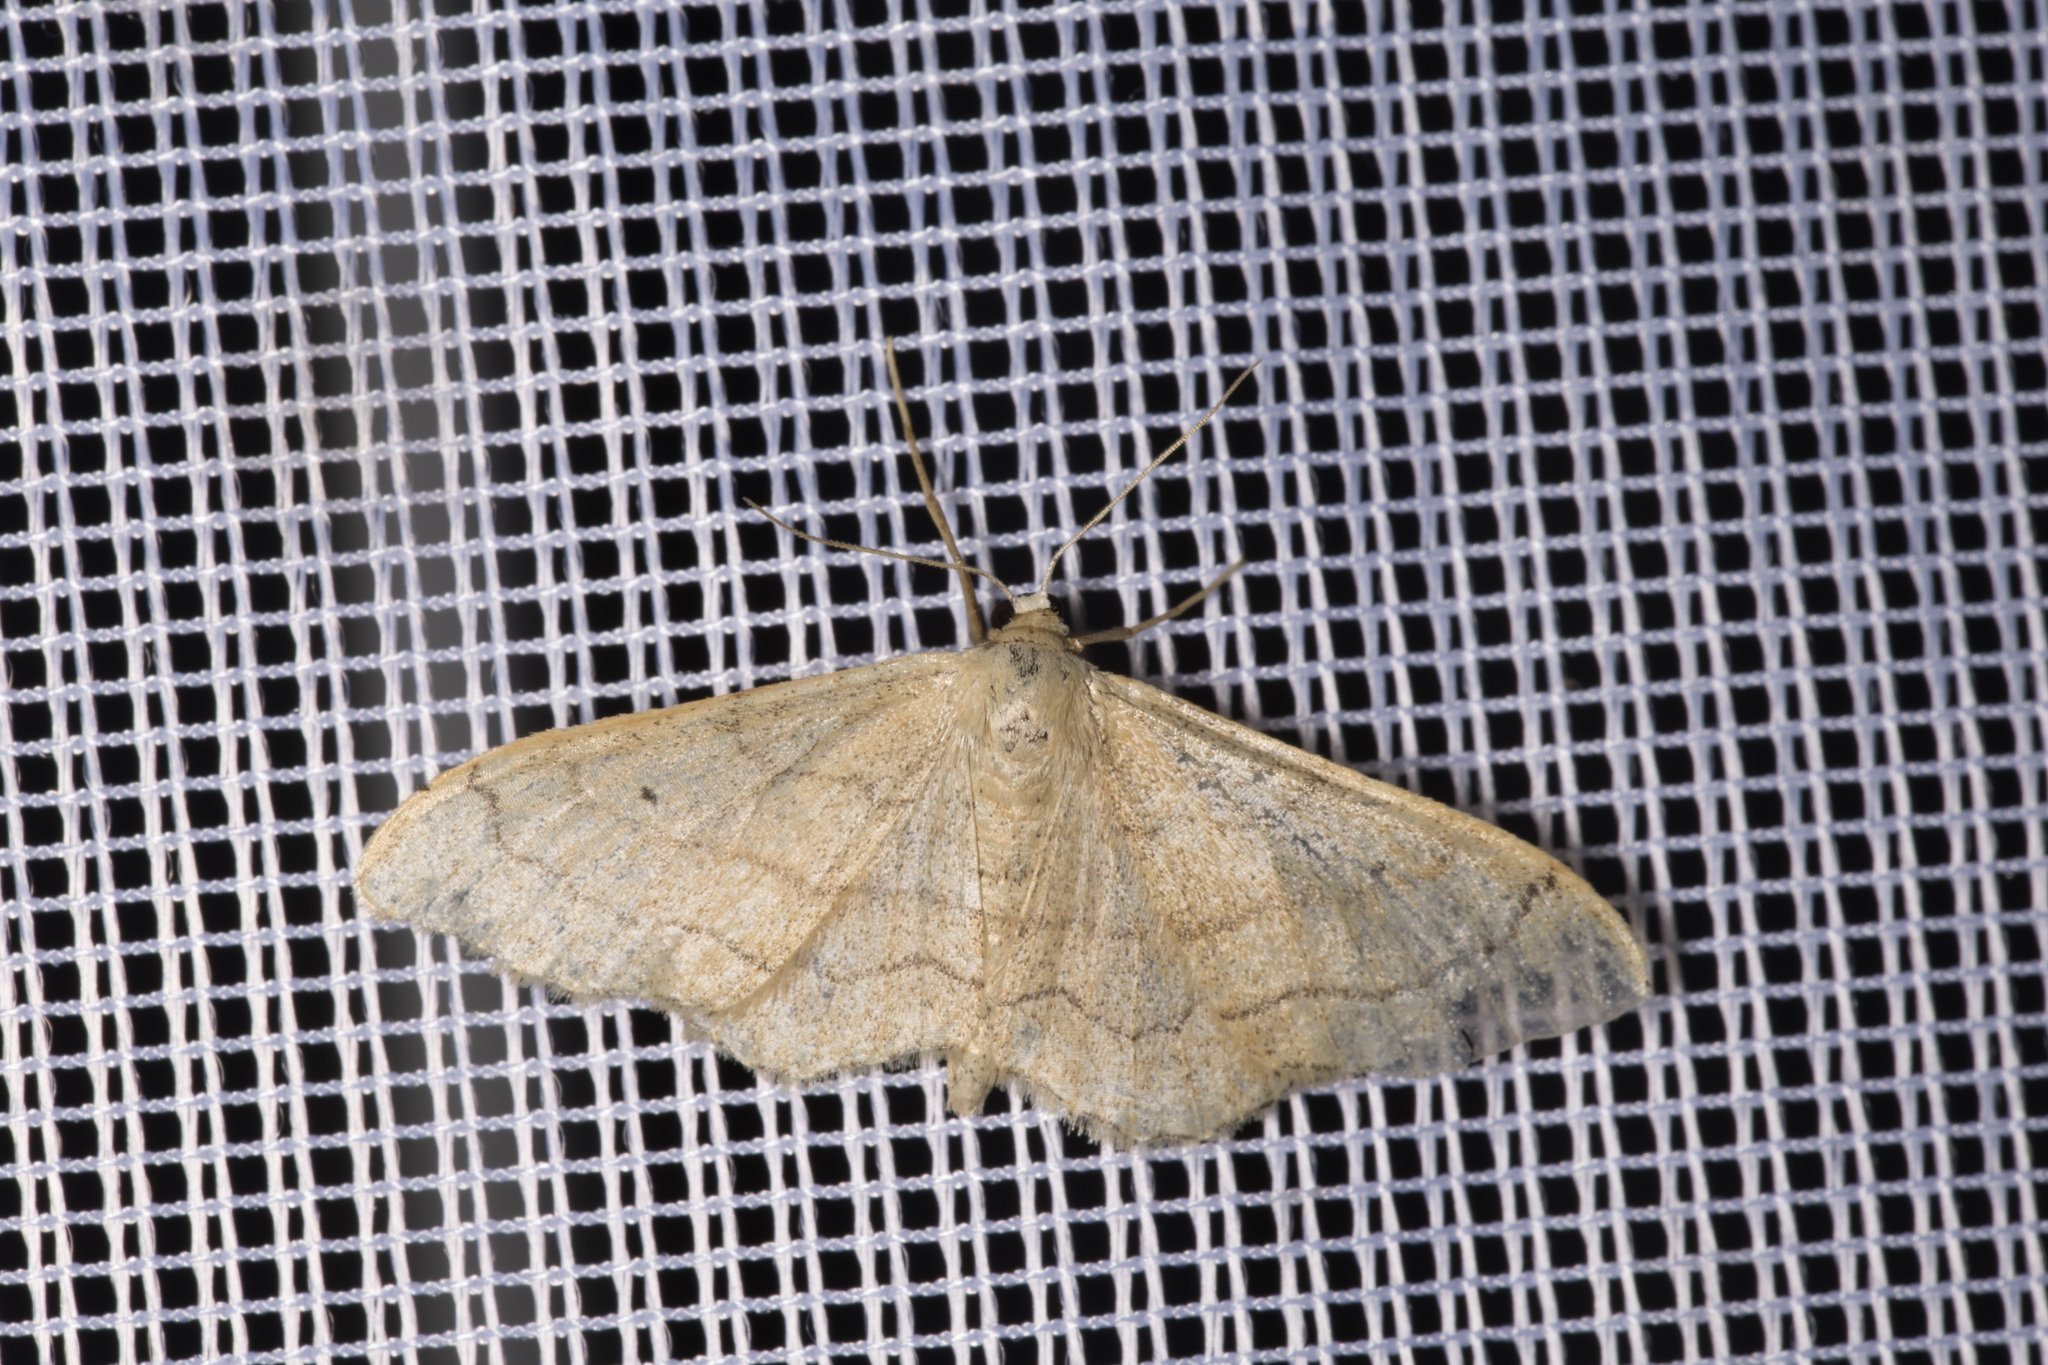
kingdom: Animalia
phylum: Arthropoda
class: Insecta
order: Lepidoptera
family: Geometridae
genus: Idaea
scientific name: Idaea aversata
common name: Riband wave
